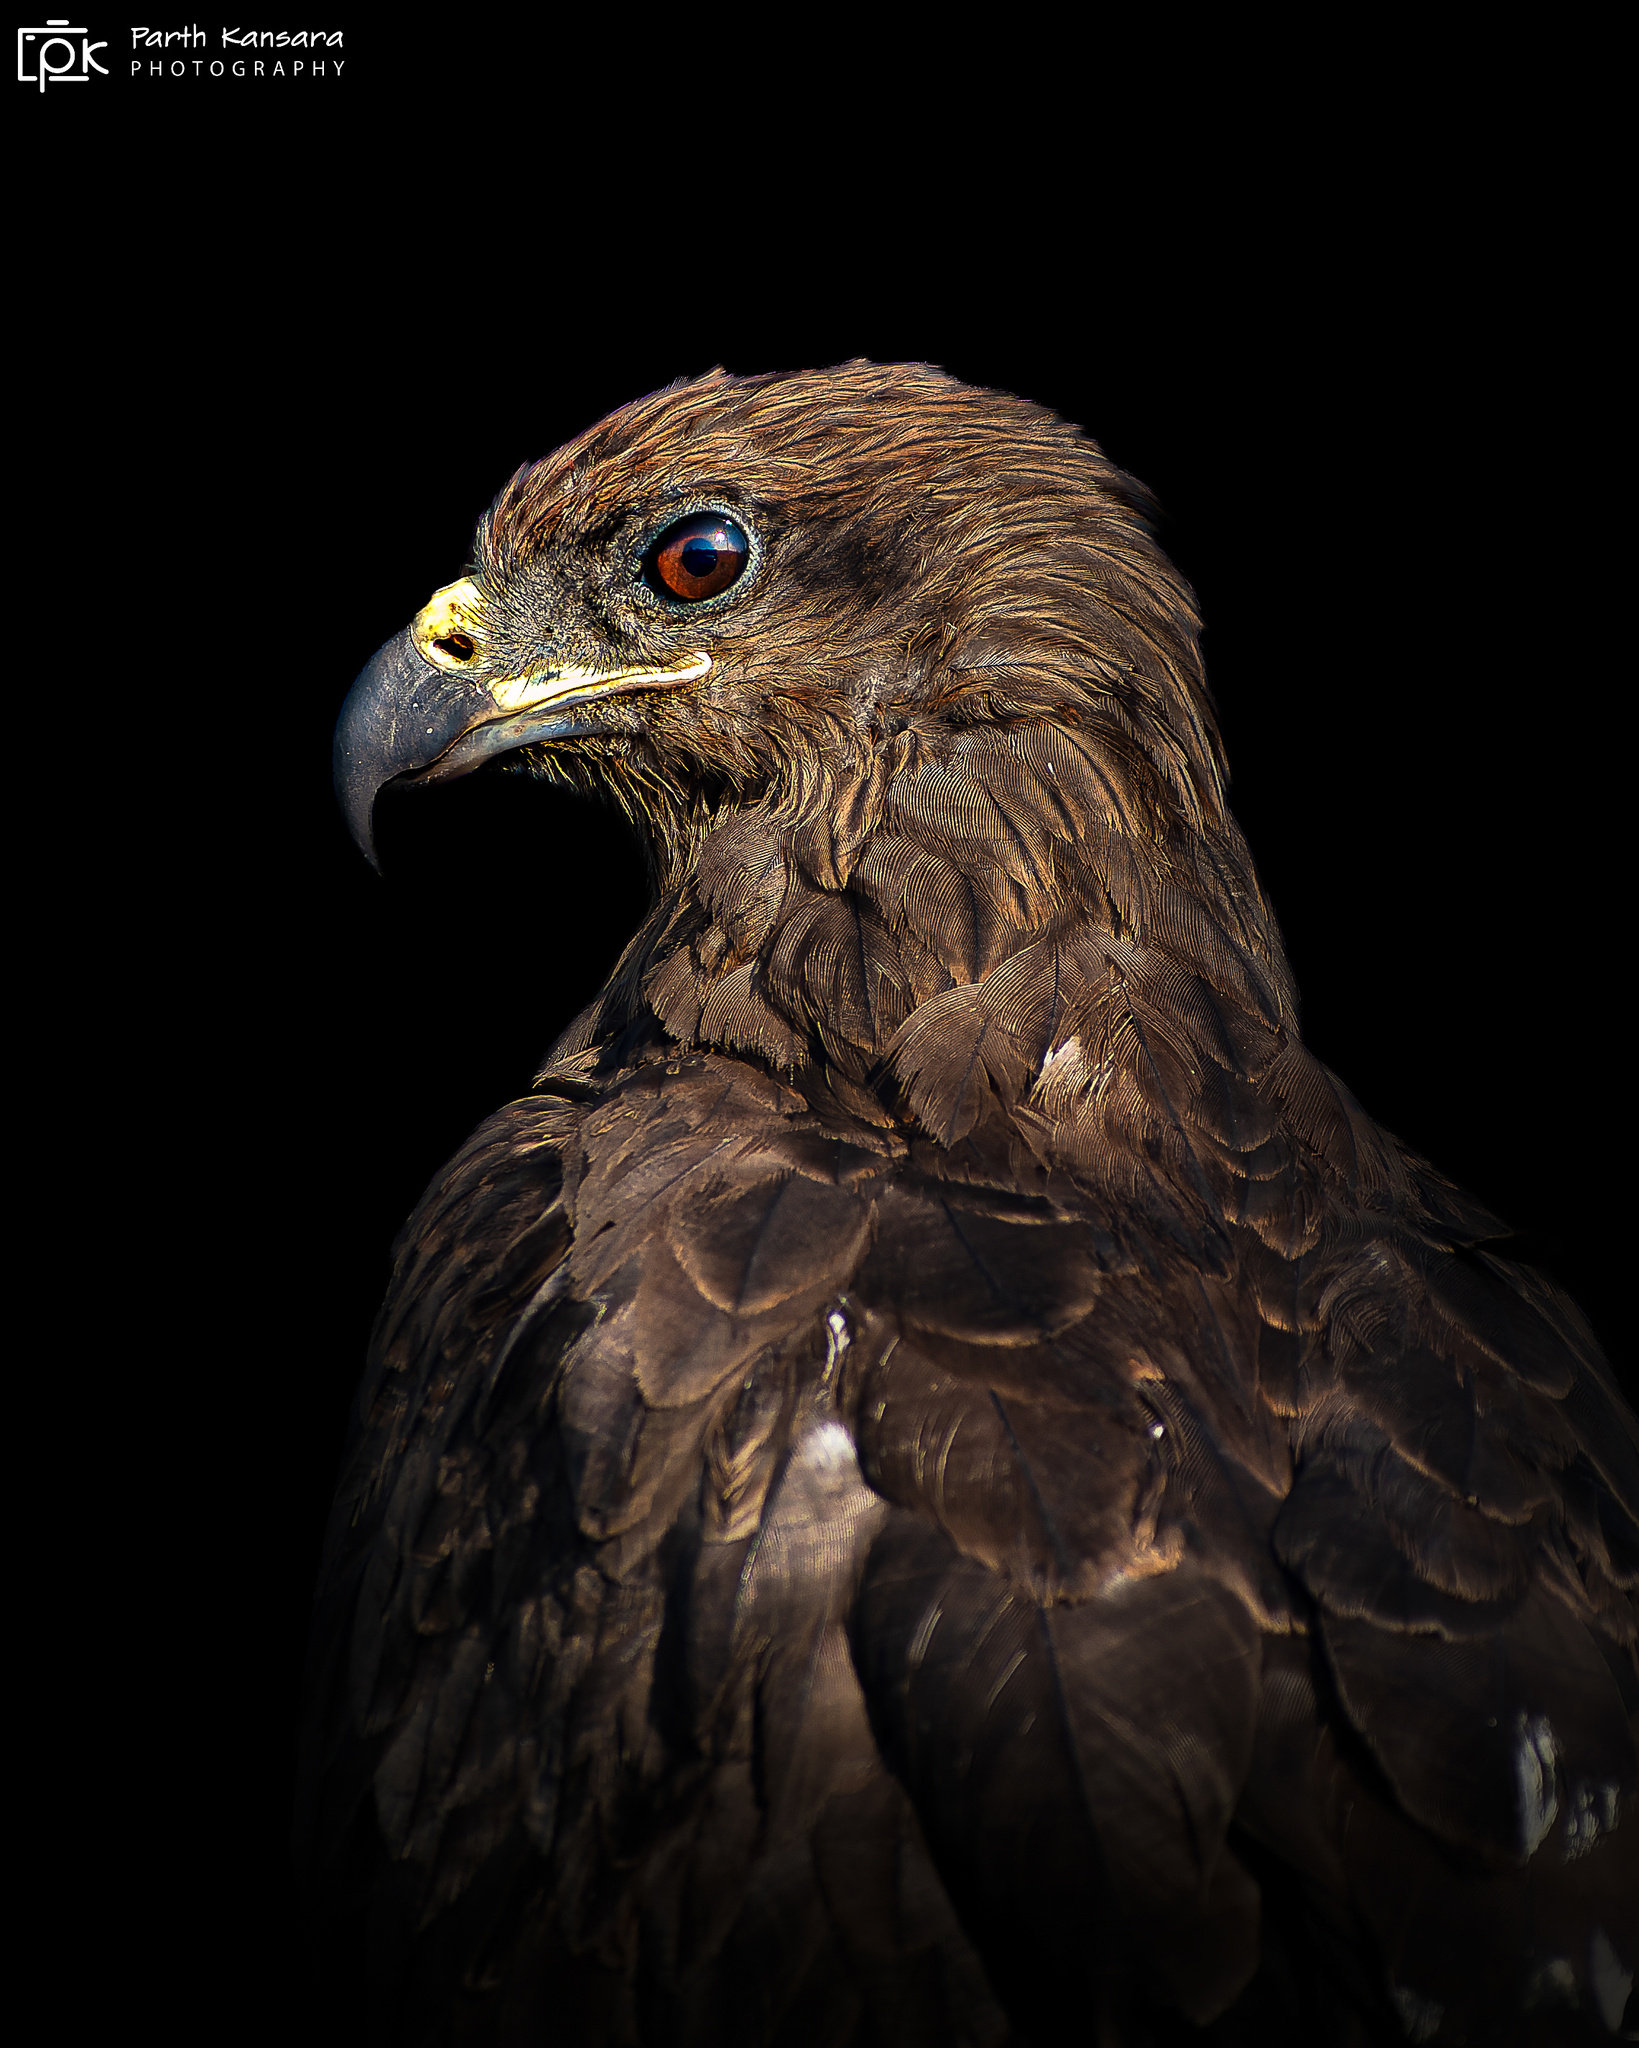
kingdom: Animalia
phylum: Chordata
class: Aves
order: Accipitriformes
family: Accipitridae
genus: Milvus
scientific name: Milvus migrans
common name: Black kite
